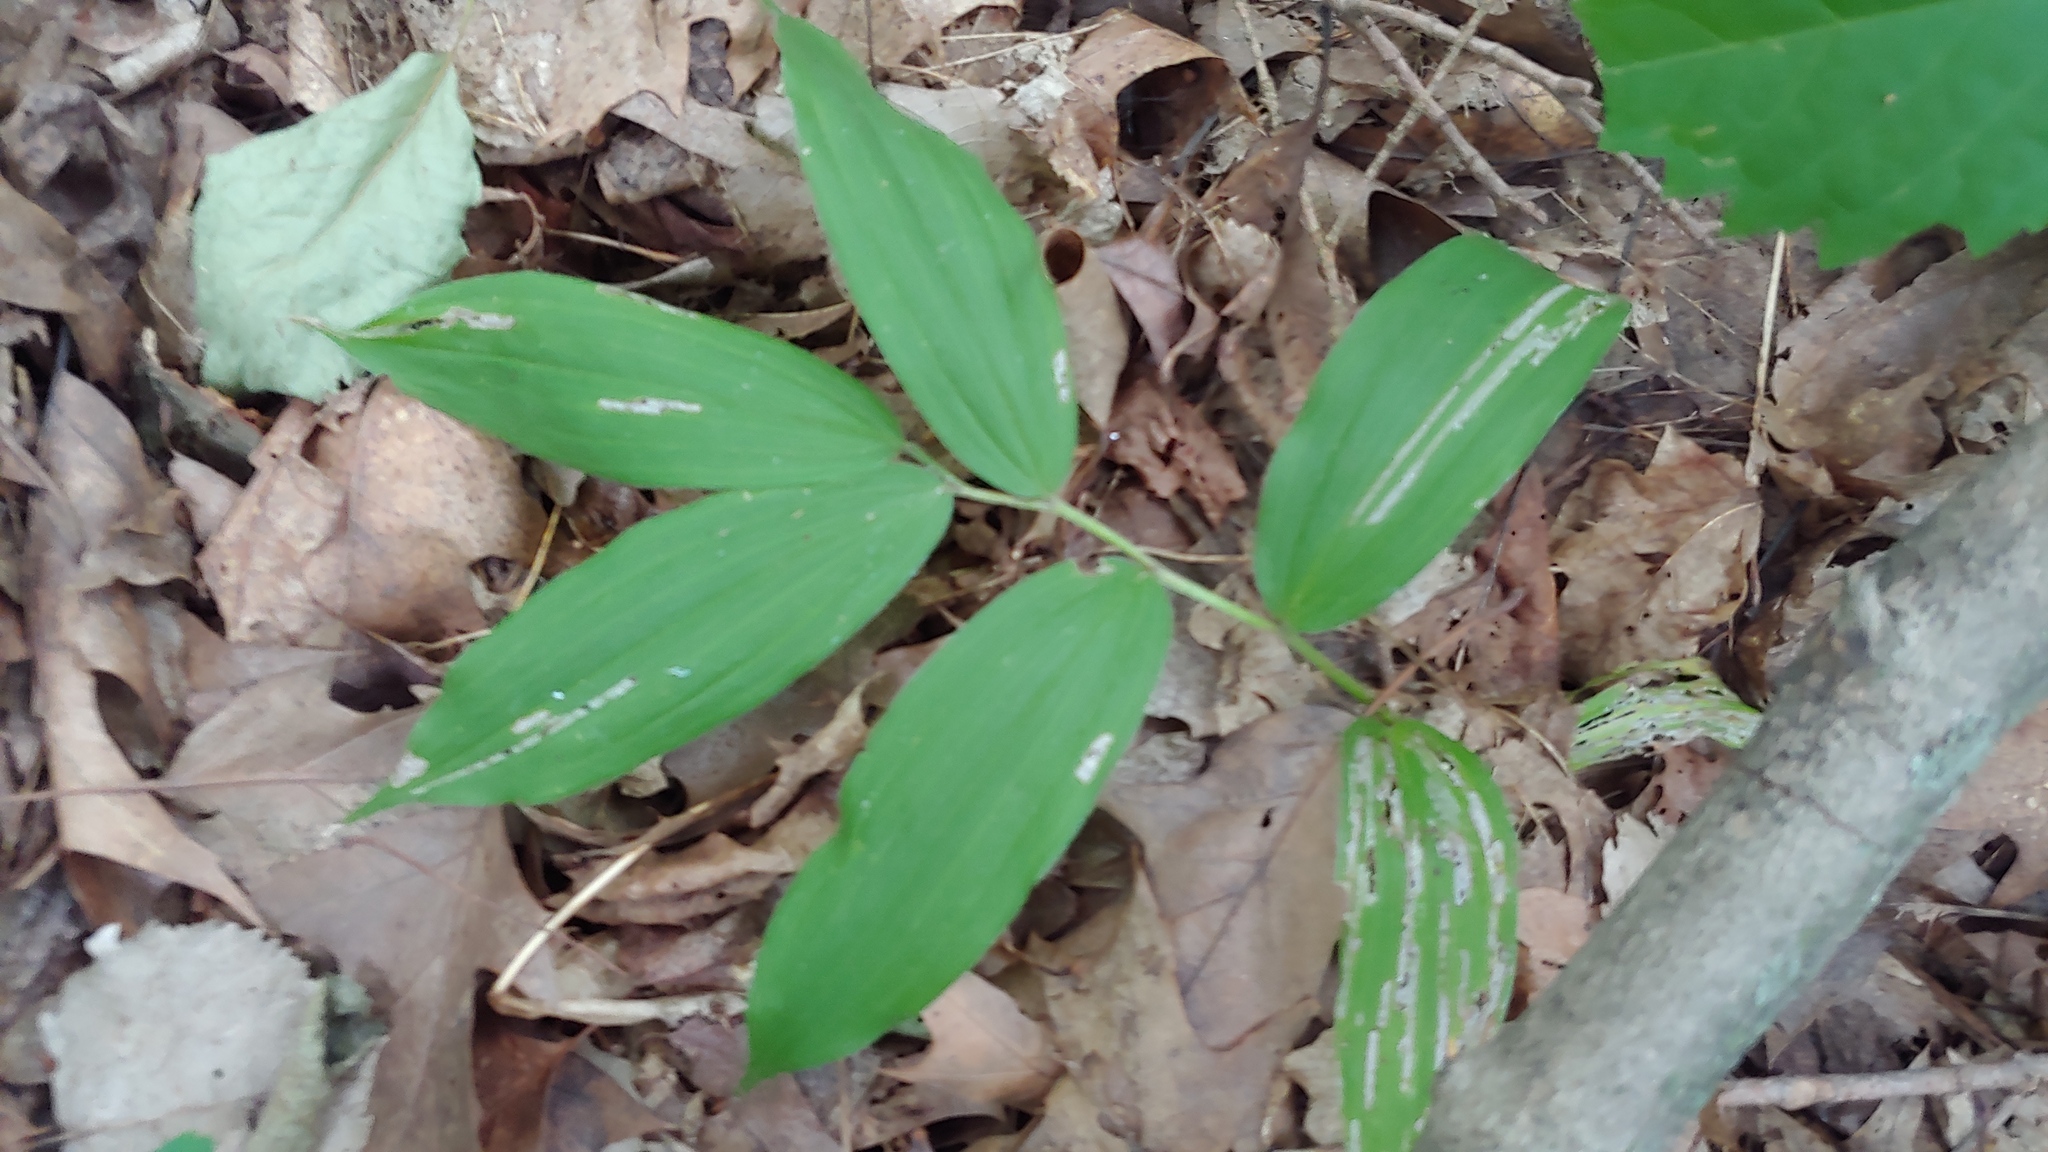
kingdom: Plantae
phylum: Tracheophyta
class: Liliopsida
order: Asparagales
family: Asparagaceae
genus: Maianthemum
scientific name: Maianthemum racemosum
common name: False spikenard
